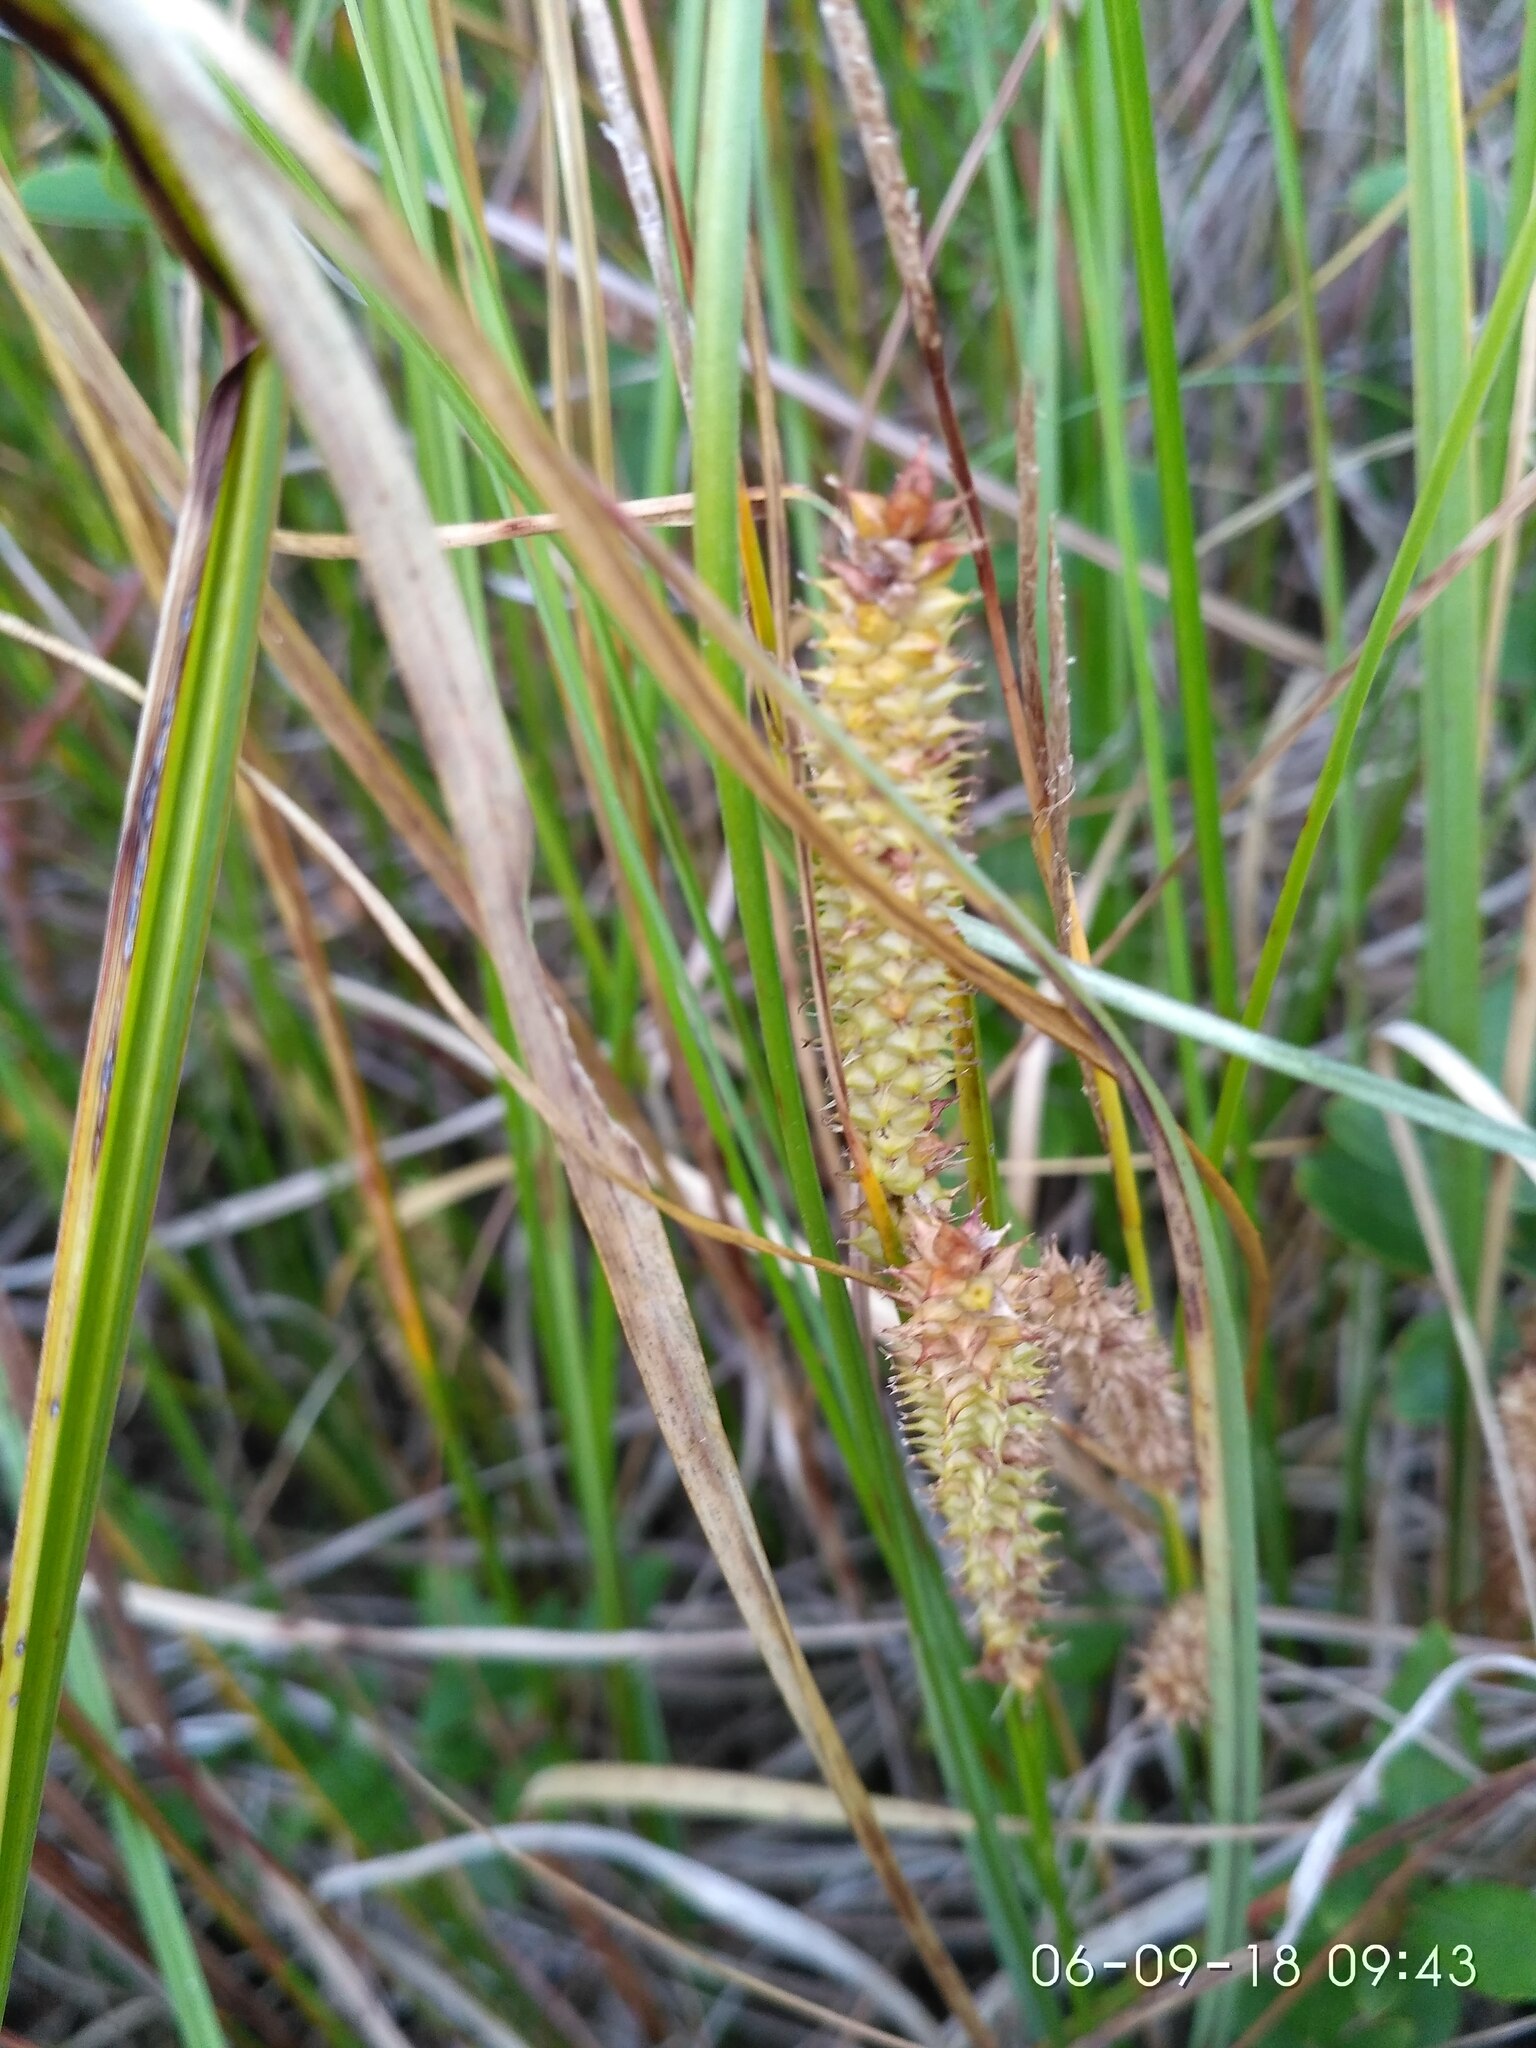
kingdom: Plantae
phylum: Tracheophyta
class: Liliopsida
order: Poales
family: Cyperaceae
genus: Carex
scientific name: Carex rostrata
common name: Bottle sedge
